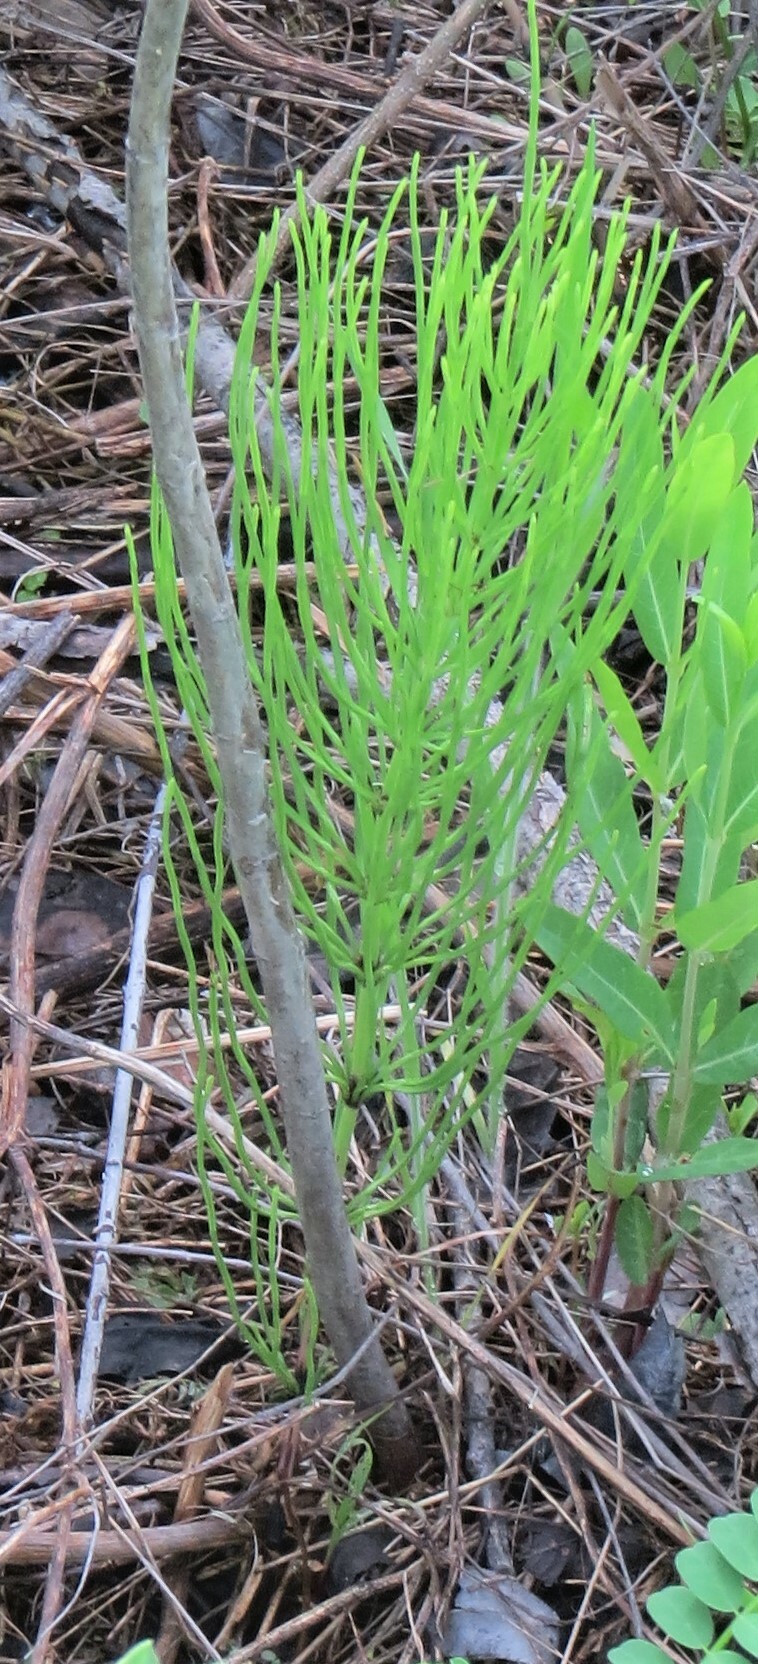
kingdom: Plantae
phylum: Tracheophyta
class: Polypodiopsida
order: Equisetales
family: Equisetaceae
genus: Equisetum
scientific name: Equisetum arvense
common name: Field horsetail
